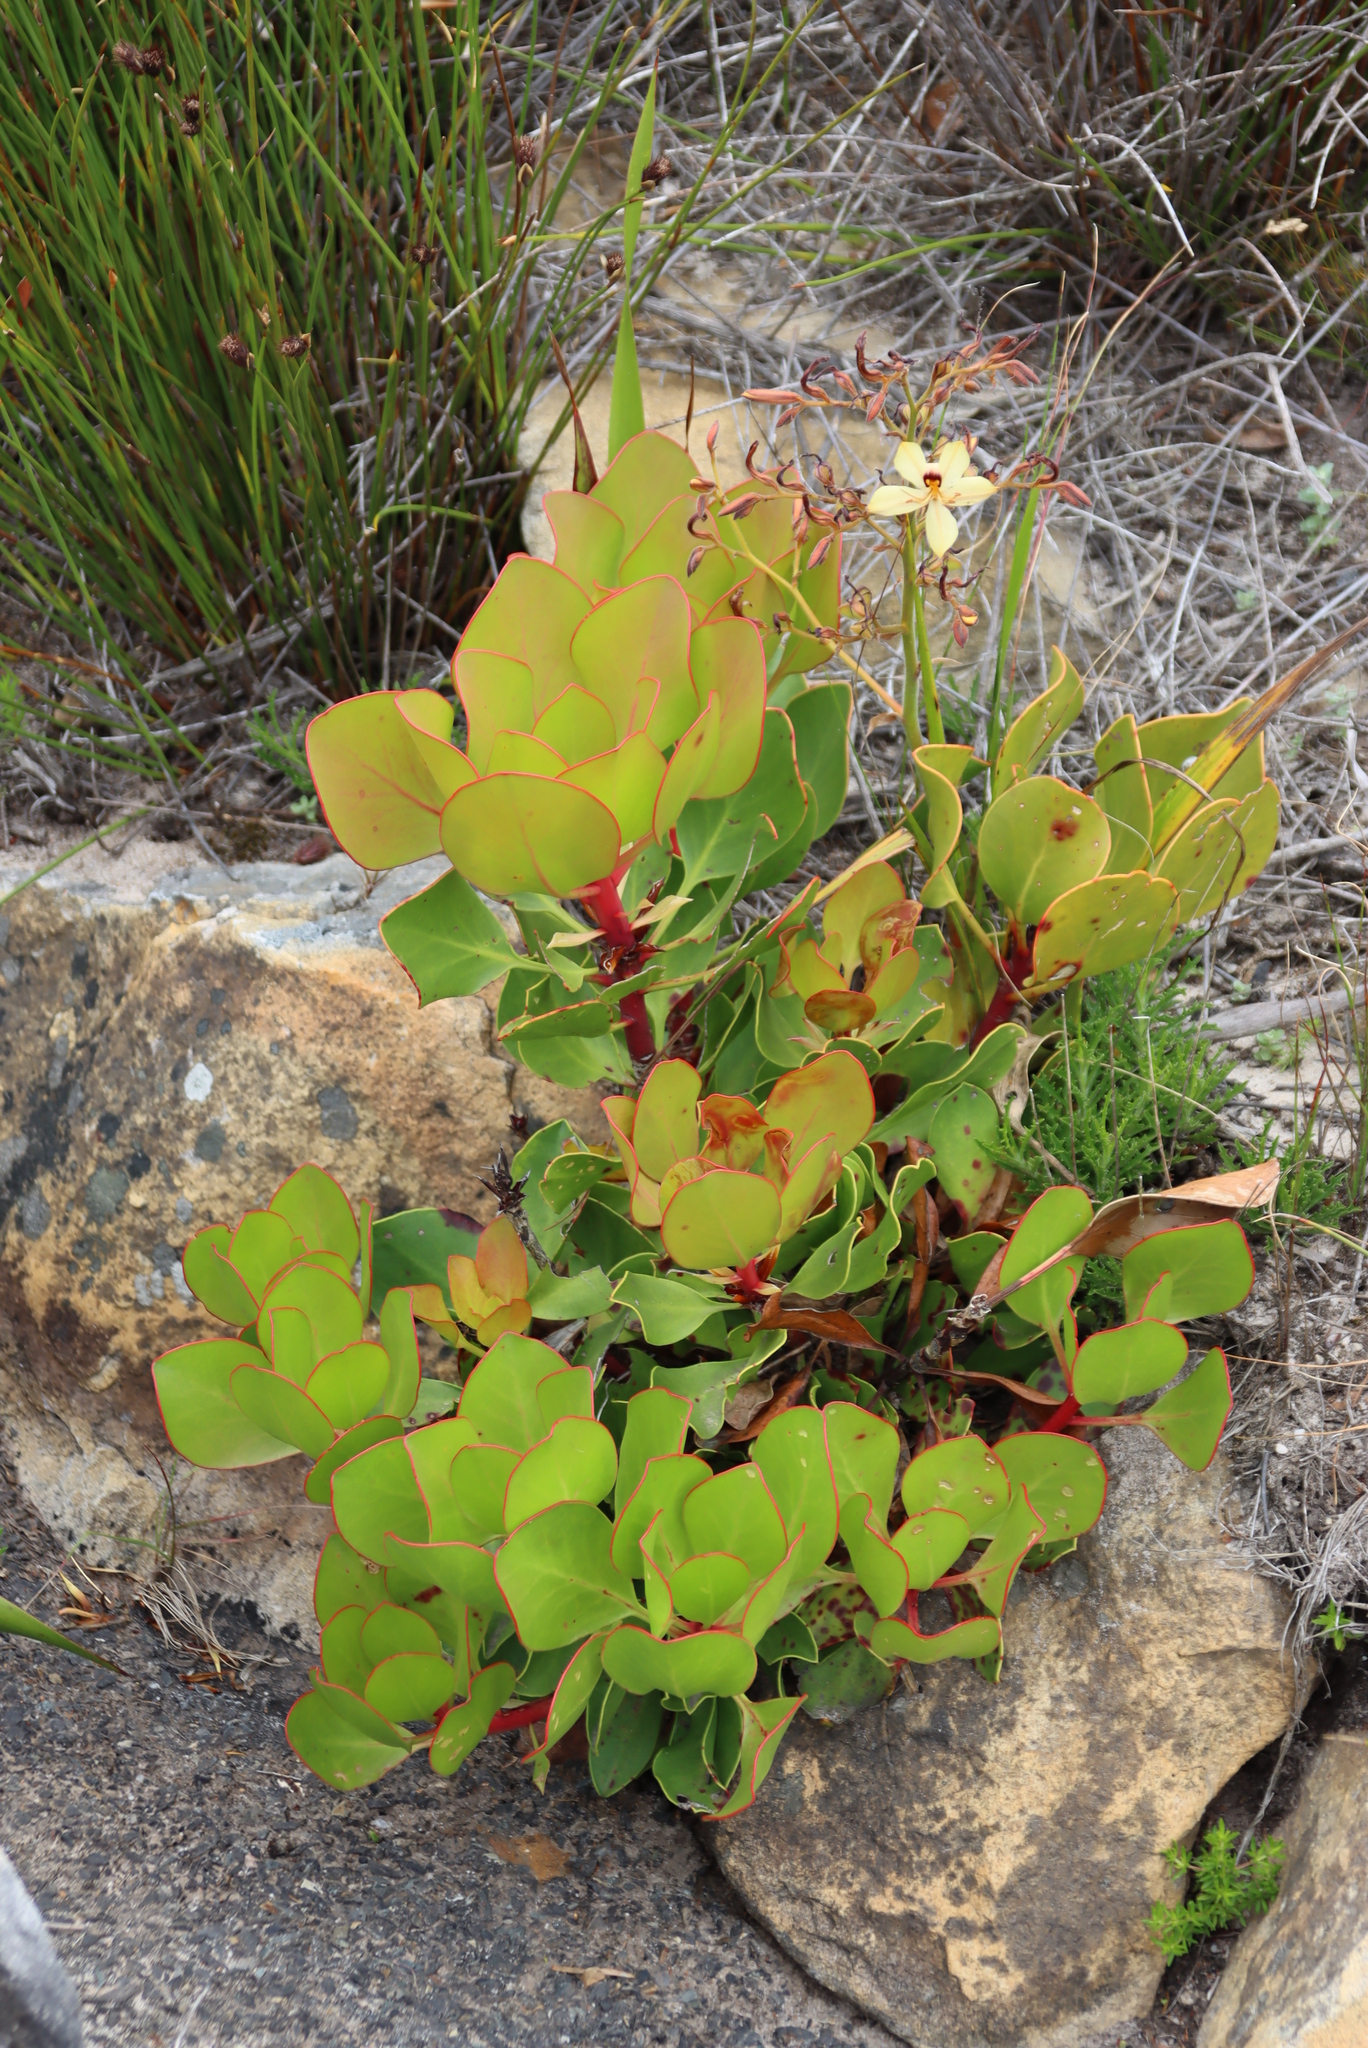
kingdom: Plantae
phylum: Tracheophyta
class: Magnoliopsida
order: Proteales
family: Proteaceae
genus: Protea
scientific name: Protea cynaroides
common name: King protea
